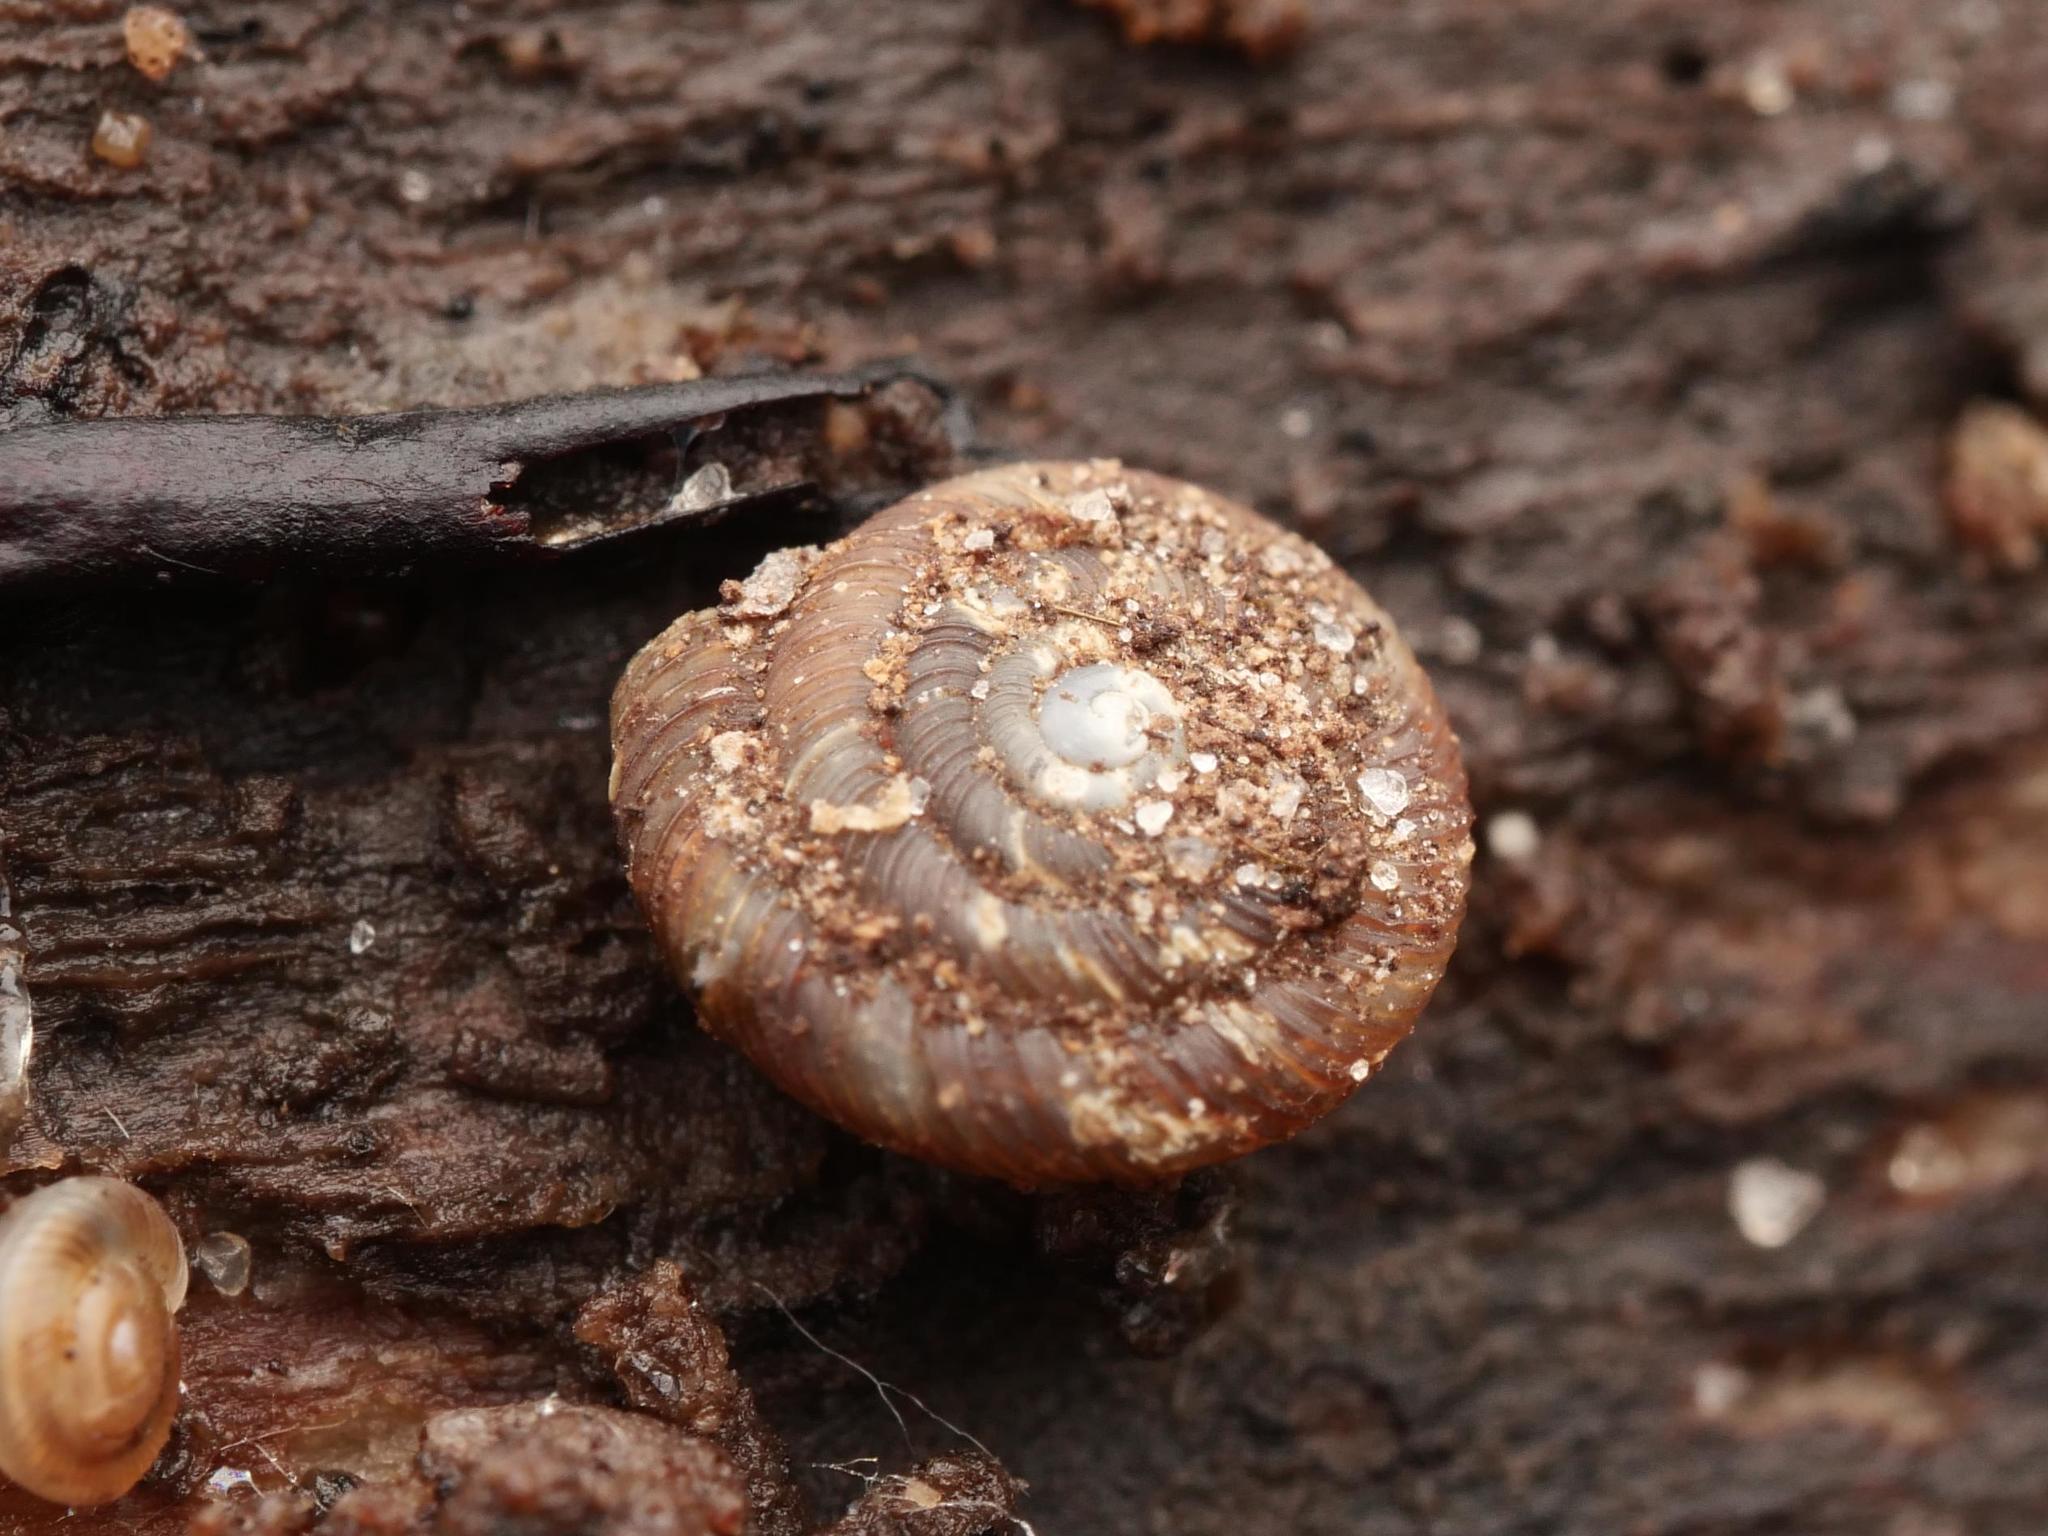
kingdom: Animalia
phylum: Mollusca
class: Gastropoda
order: Stylommatophora
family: Discidae
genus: Discus
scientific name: Discus rotundatus
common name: Rounded snail
